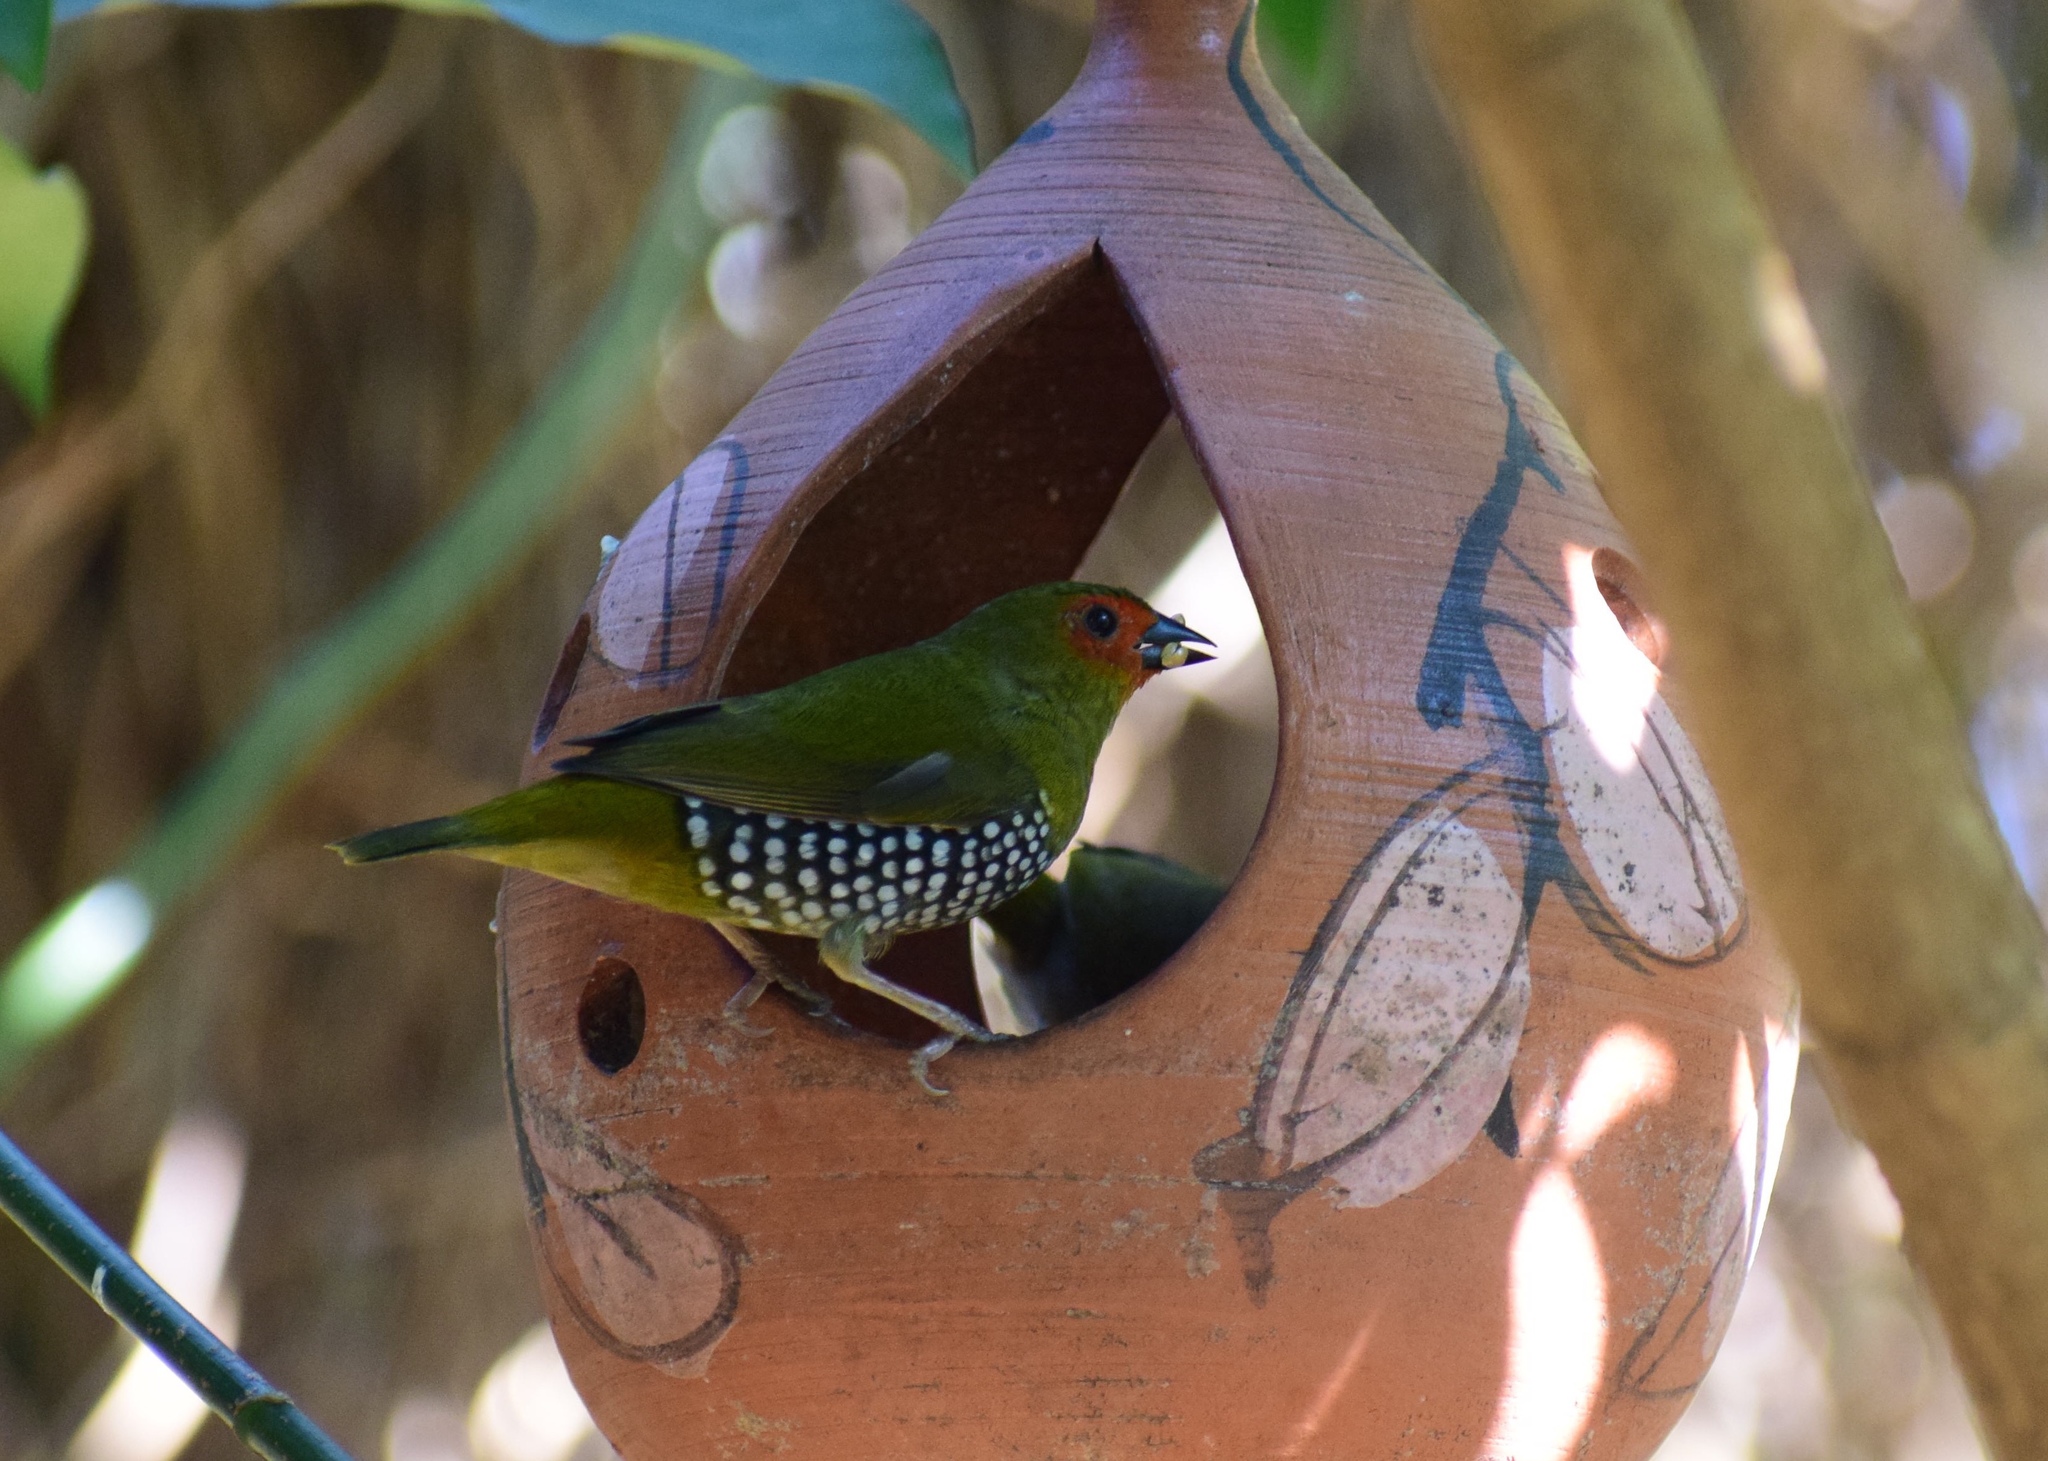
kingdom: Animalia
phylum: Chordata
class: Aves
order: Passeriformes
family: Estrildidae
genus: Mandingoa
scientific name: Mandingoa nitidula
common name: Green twinspot
